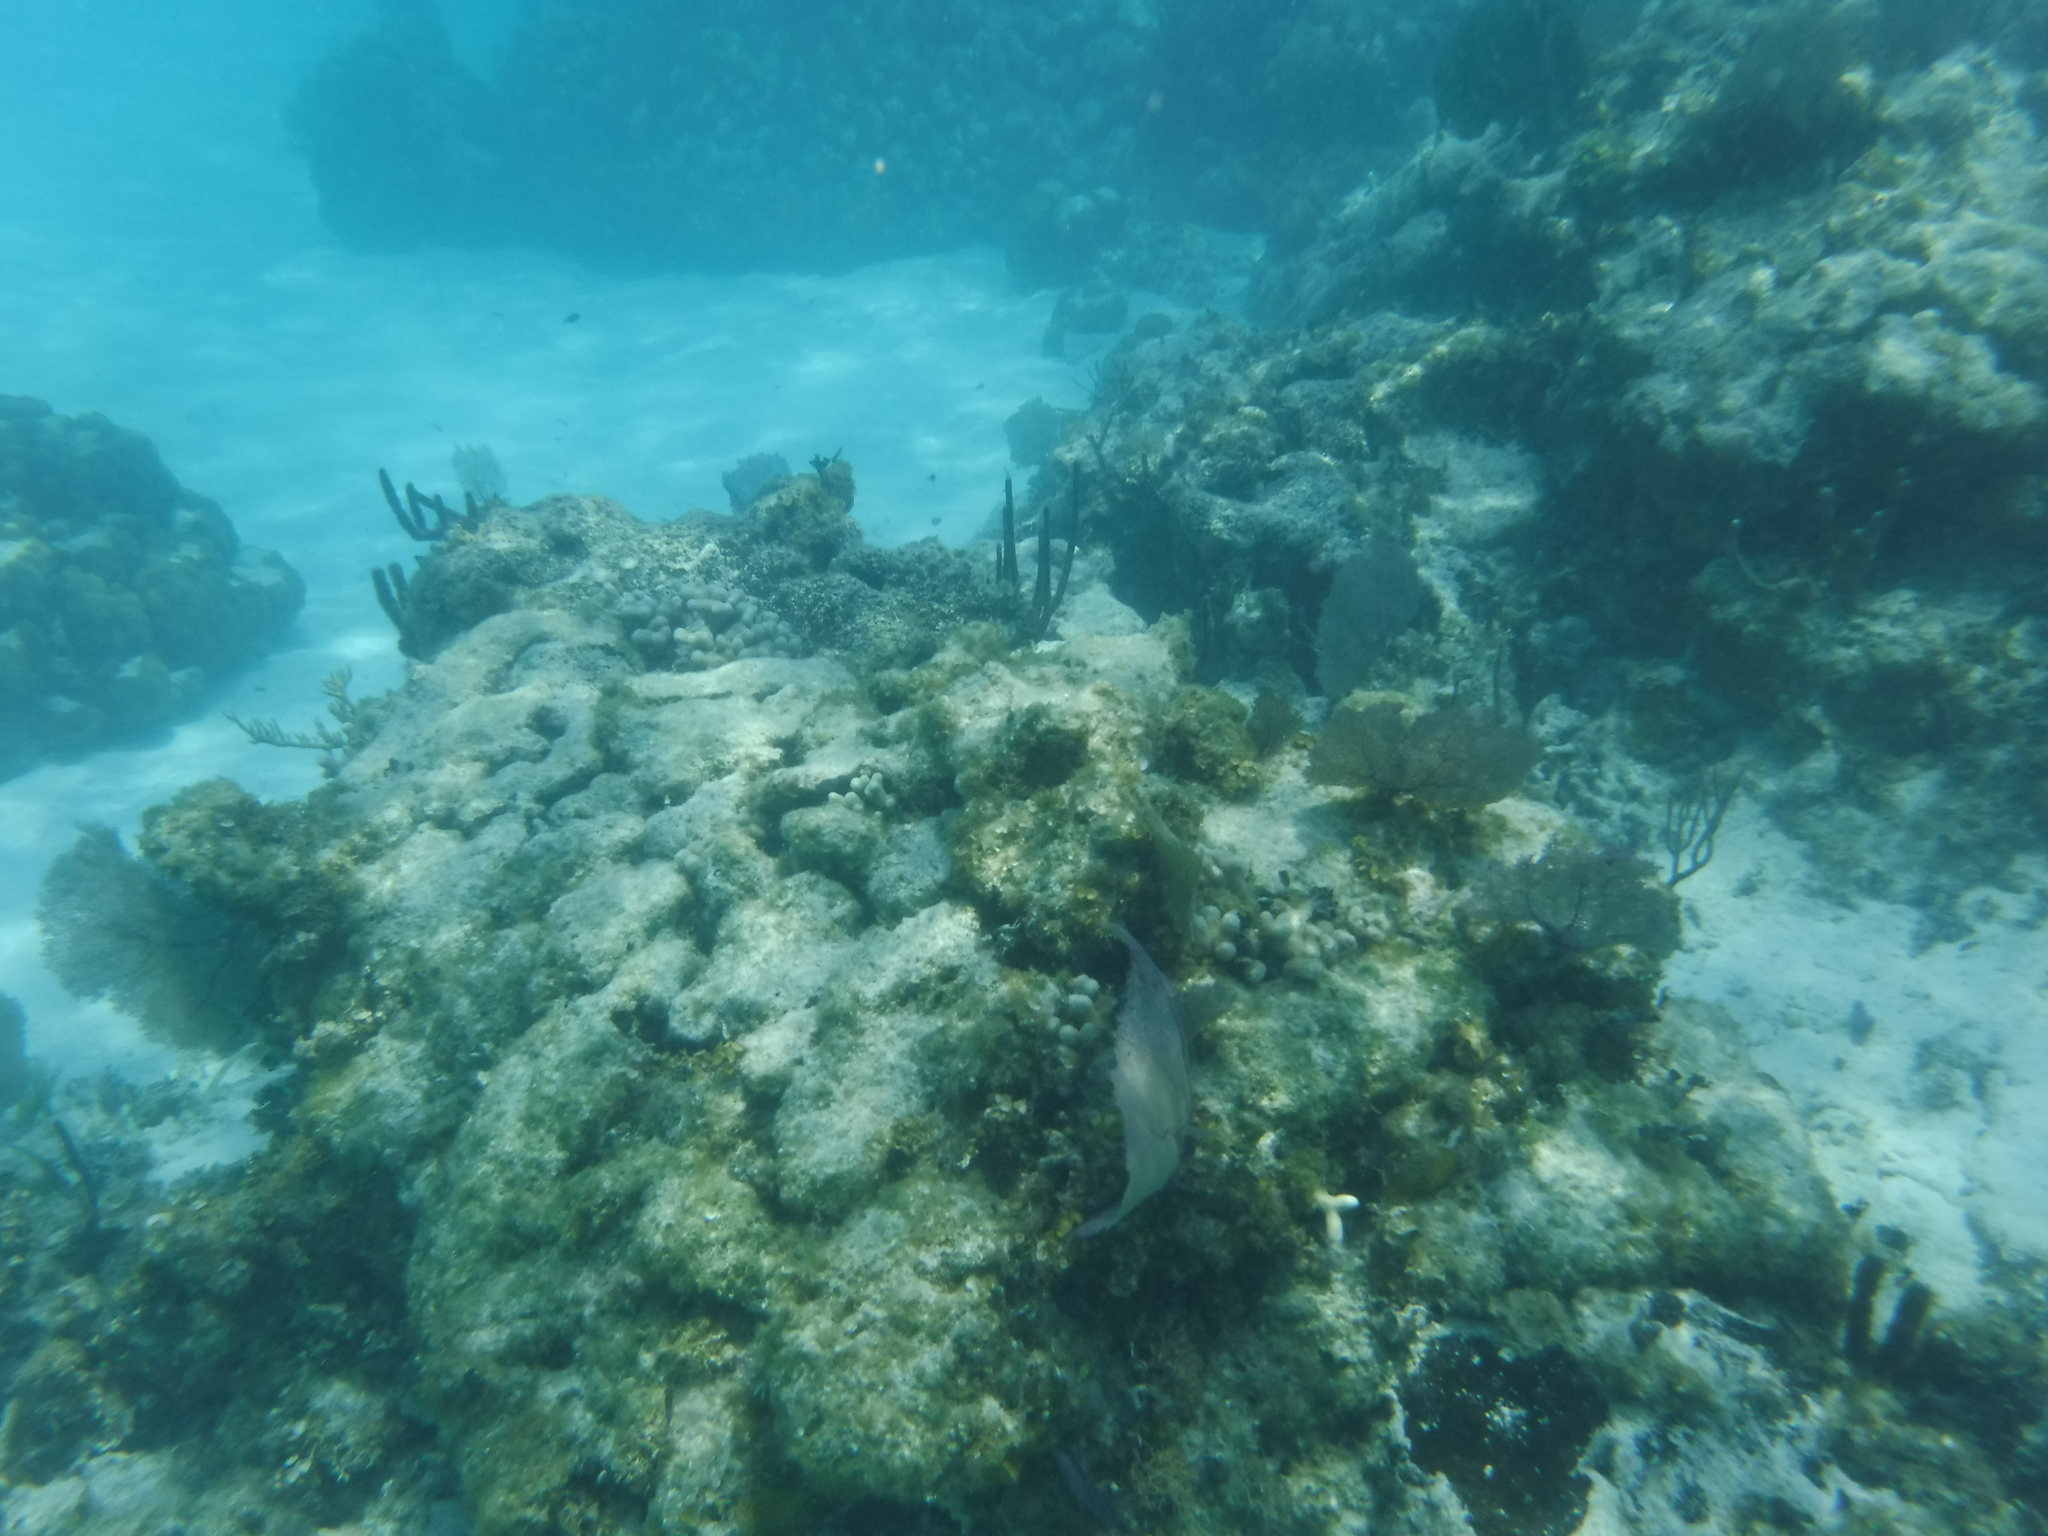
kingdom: Animalia
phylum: Cnidaria
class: Anthozoa
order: Malacalcyonacea
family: Gorgoniidae
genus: Gorgonia
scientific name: Gorgonia
